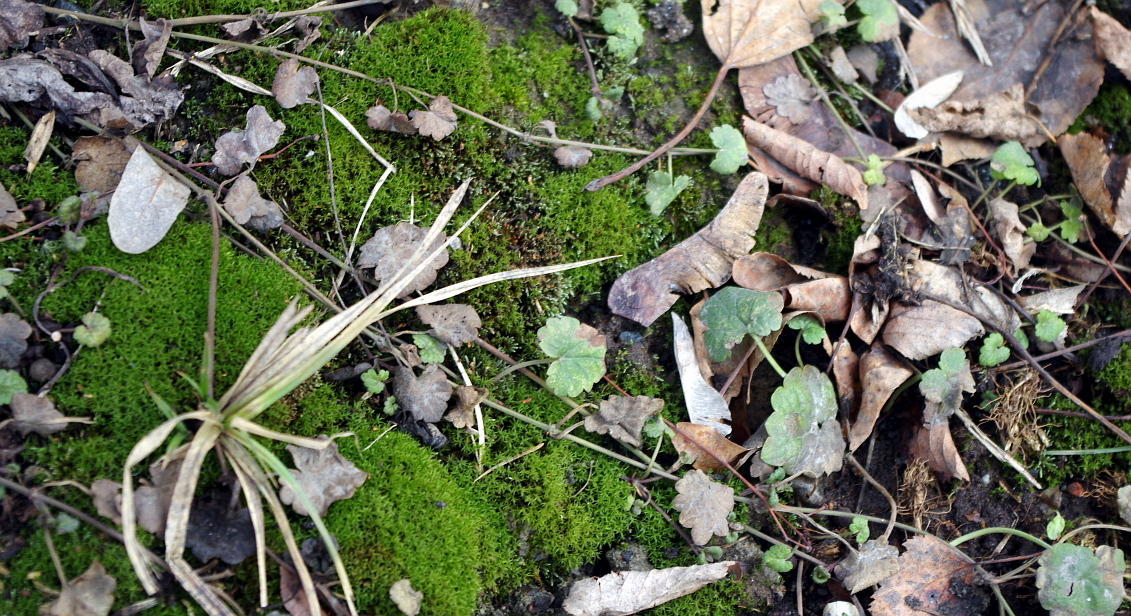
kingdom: Plantae
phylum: Tracheophyta
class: Magnoliopsida
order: Lamiales
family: Lamiaceae
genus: Glechoma
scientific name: Glechoma hederacea
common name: Ground ivy
